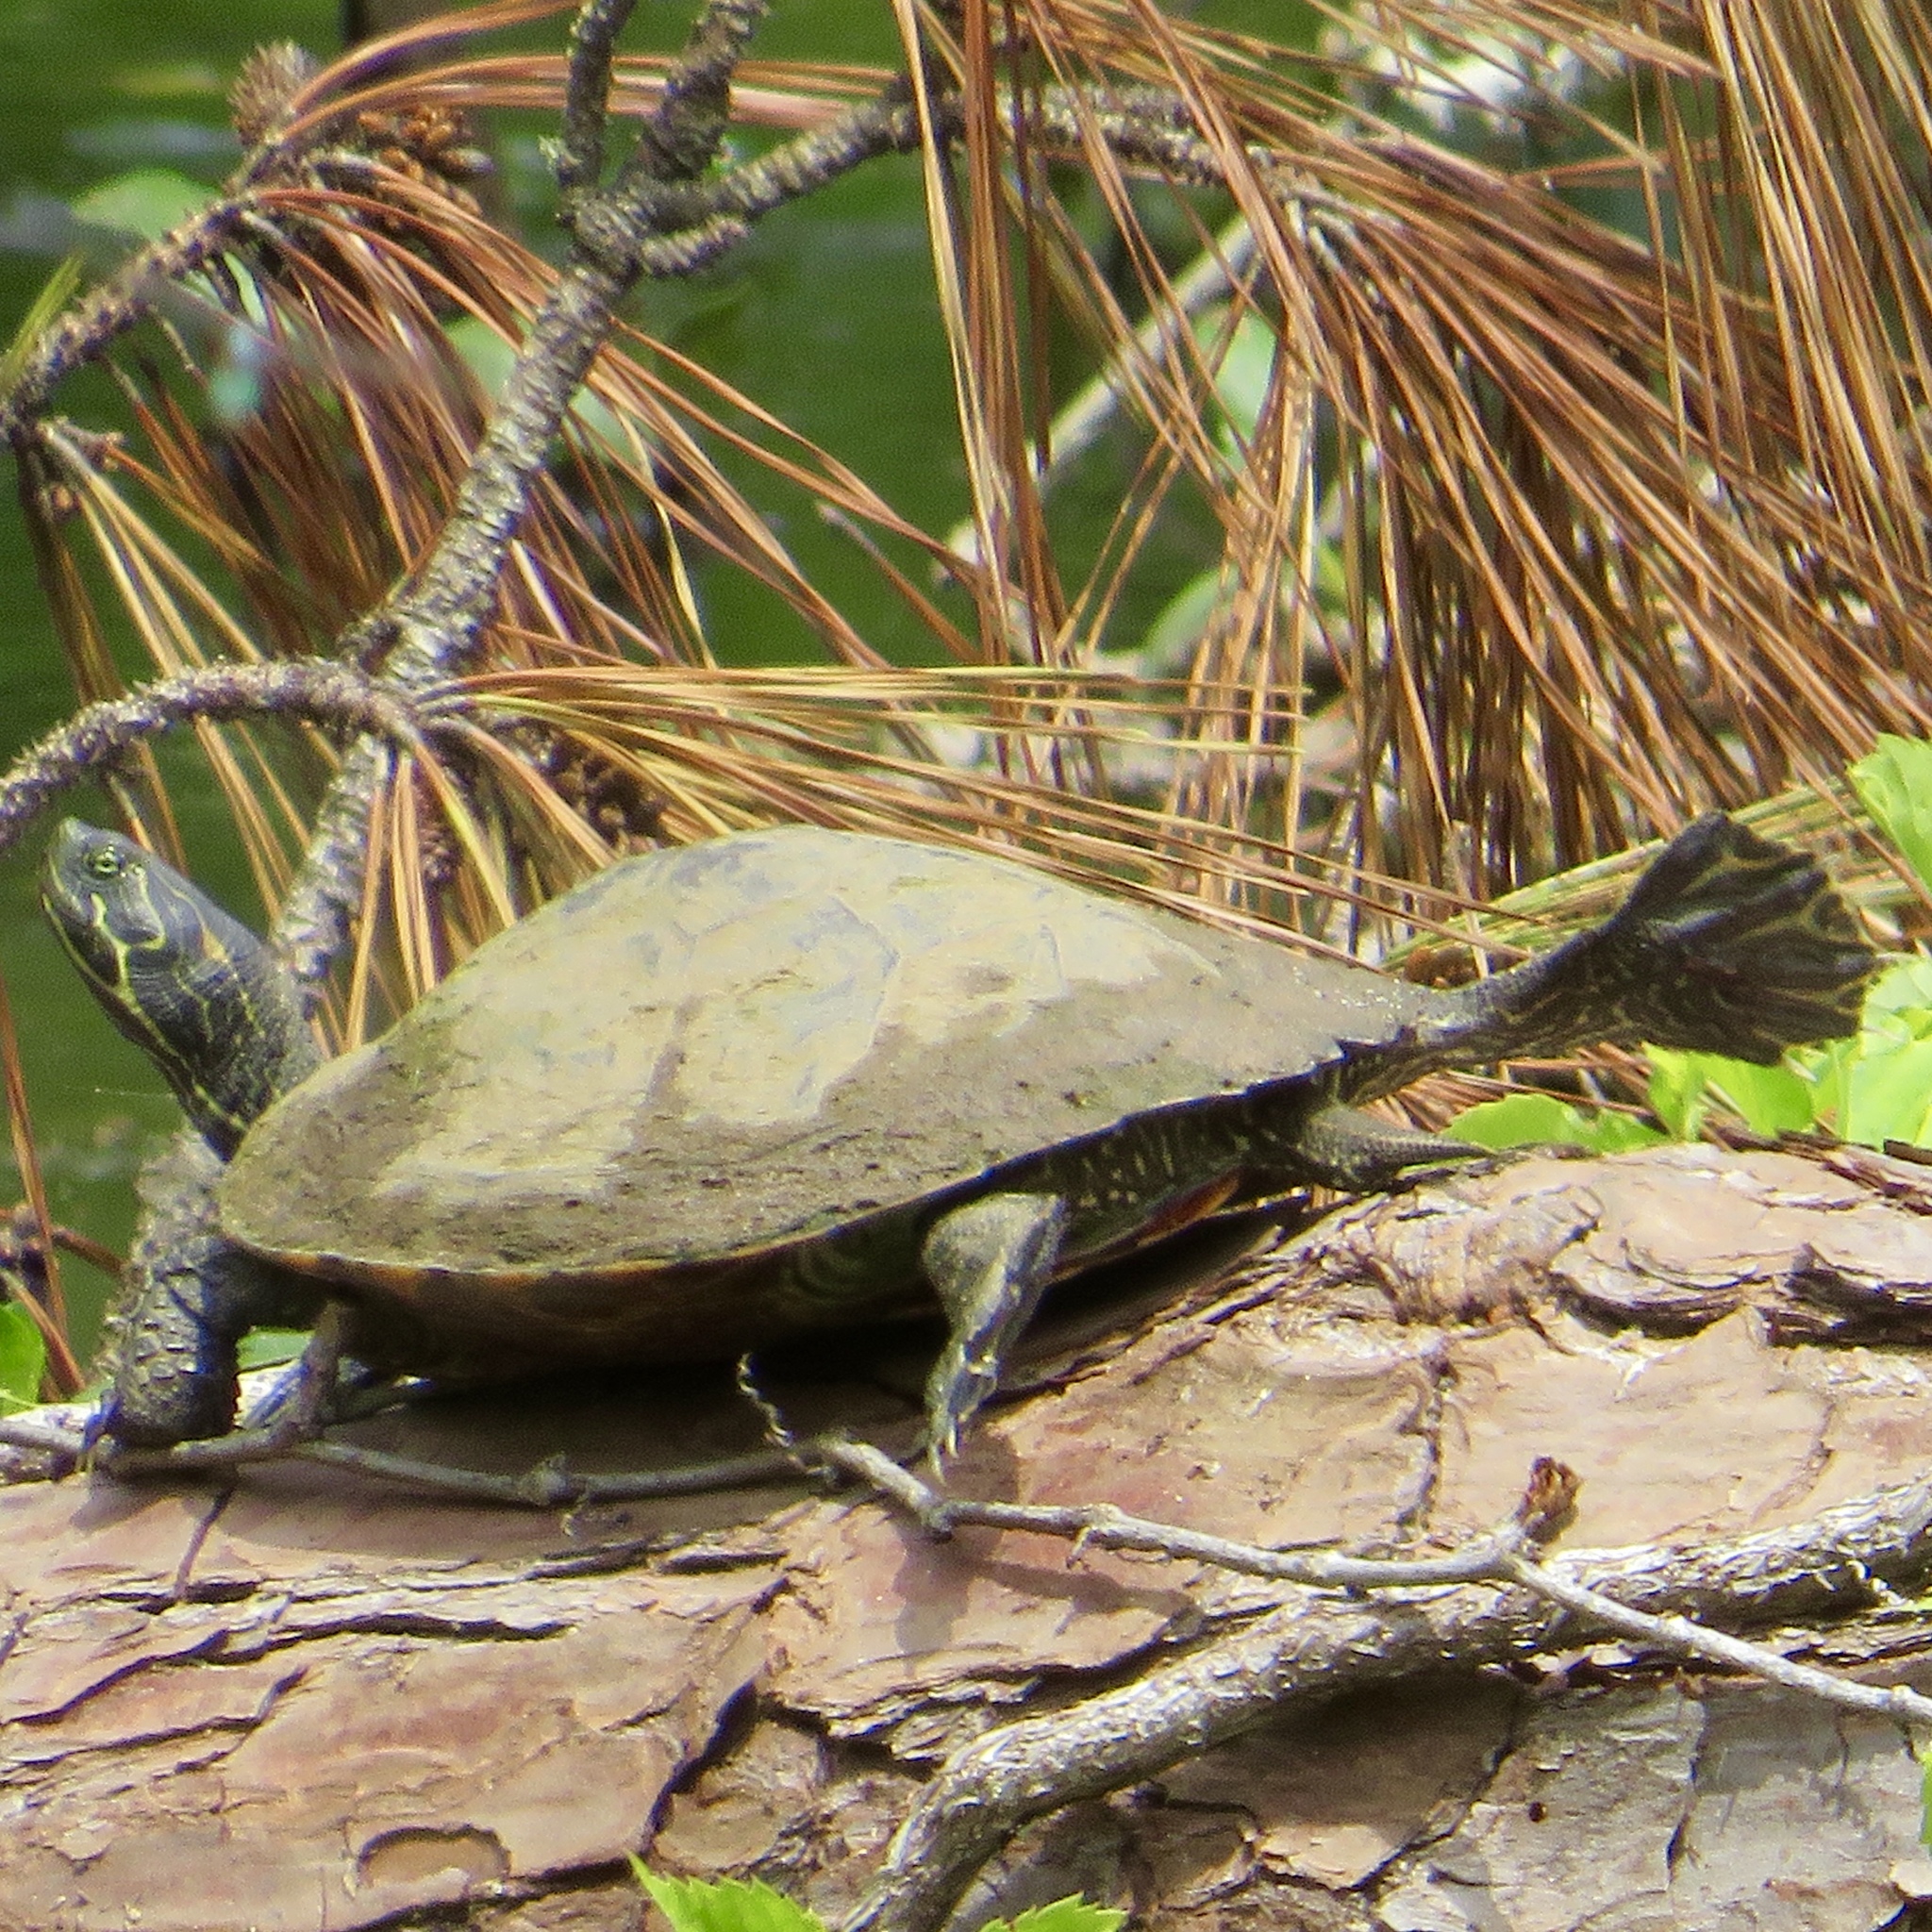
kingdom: Animalia
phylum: Chordata
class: Testudines
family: Emydidae
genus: Pseudemys
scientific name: Pseudemys concinna
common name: Eastern river cooter
